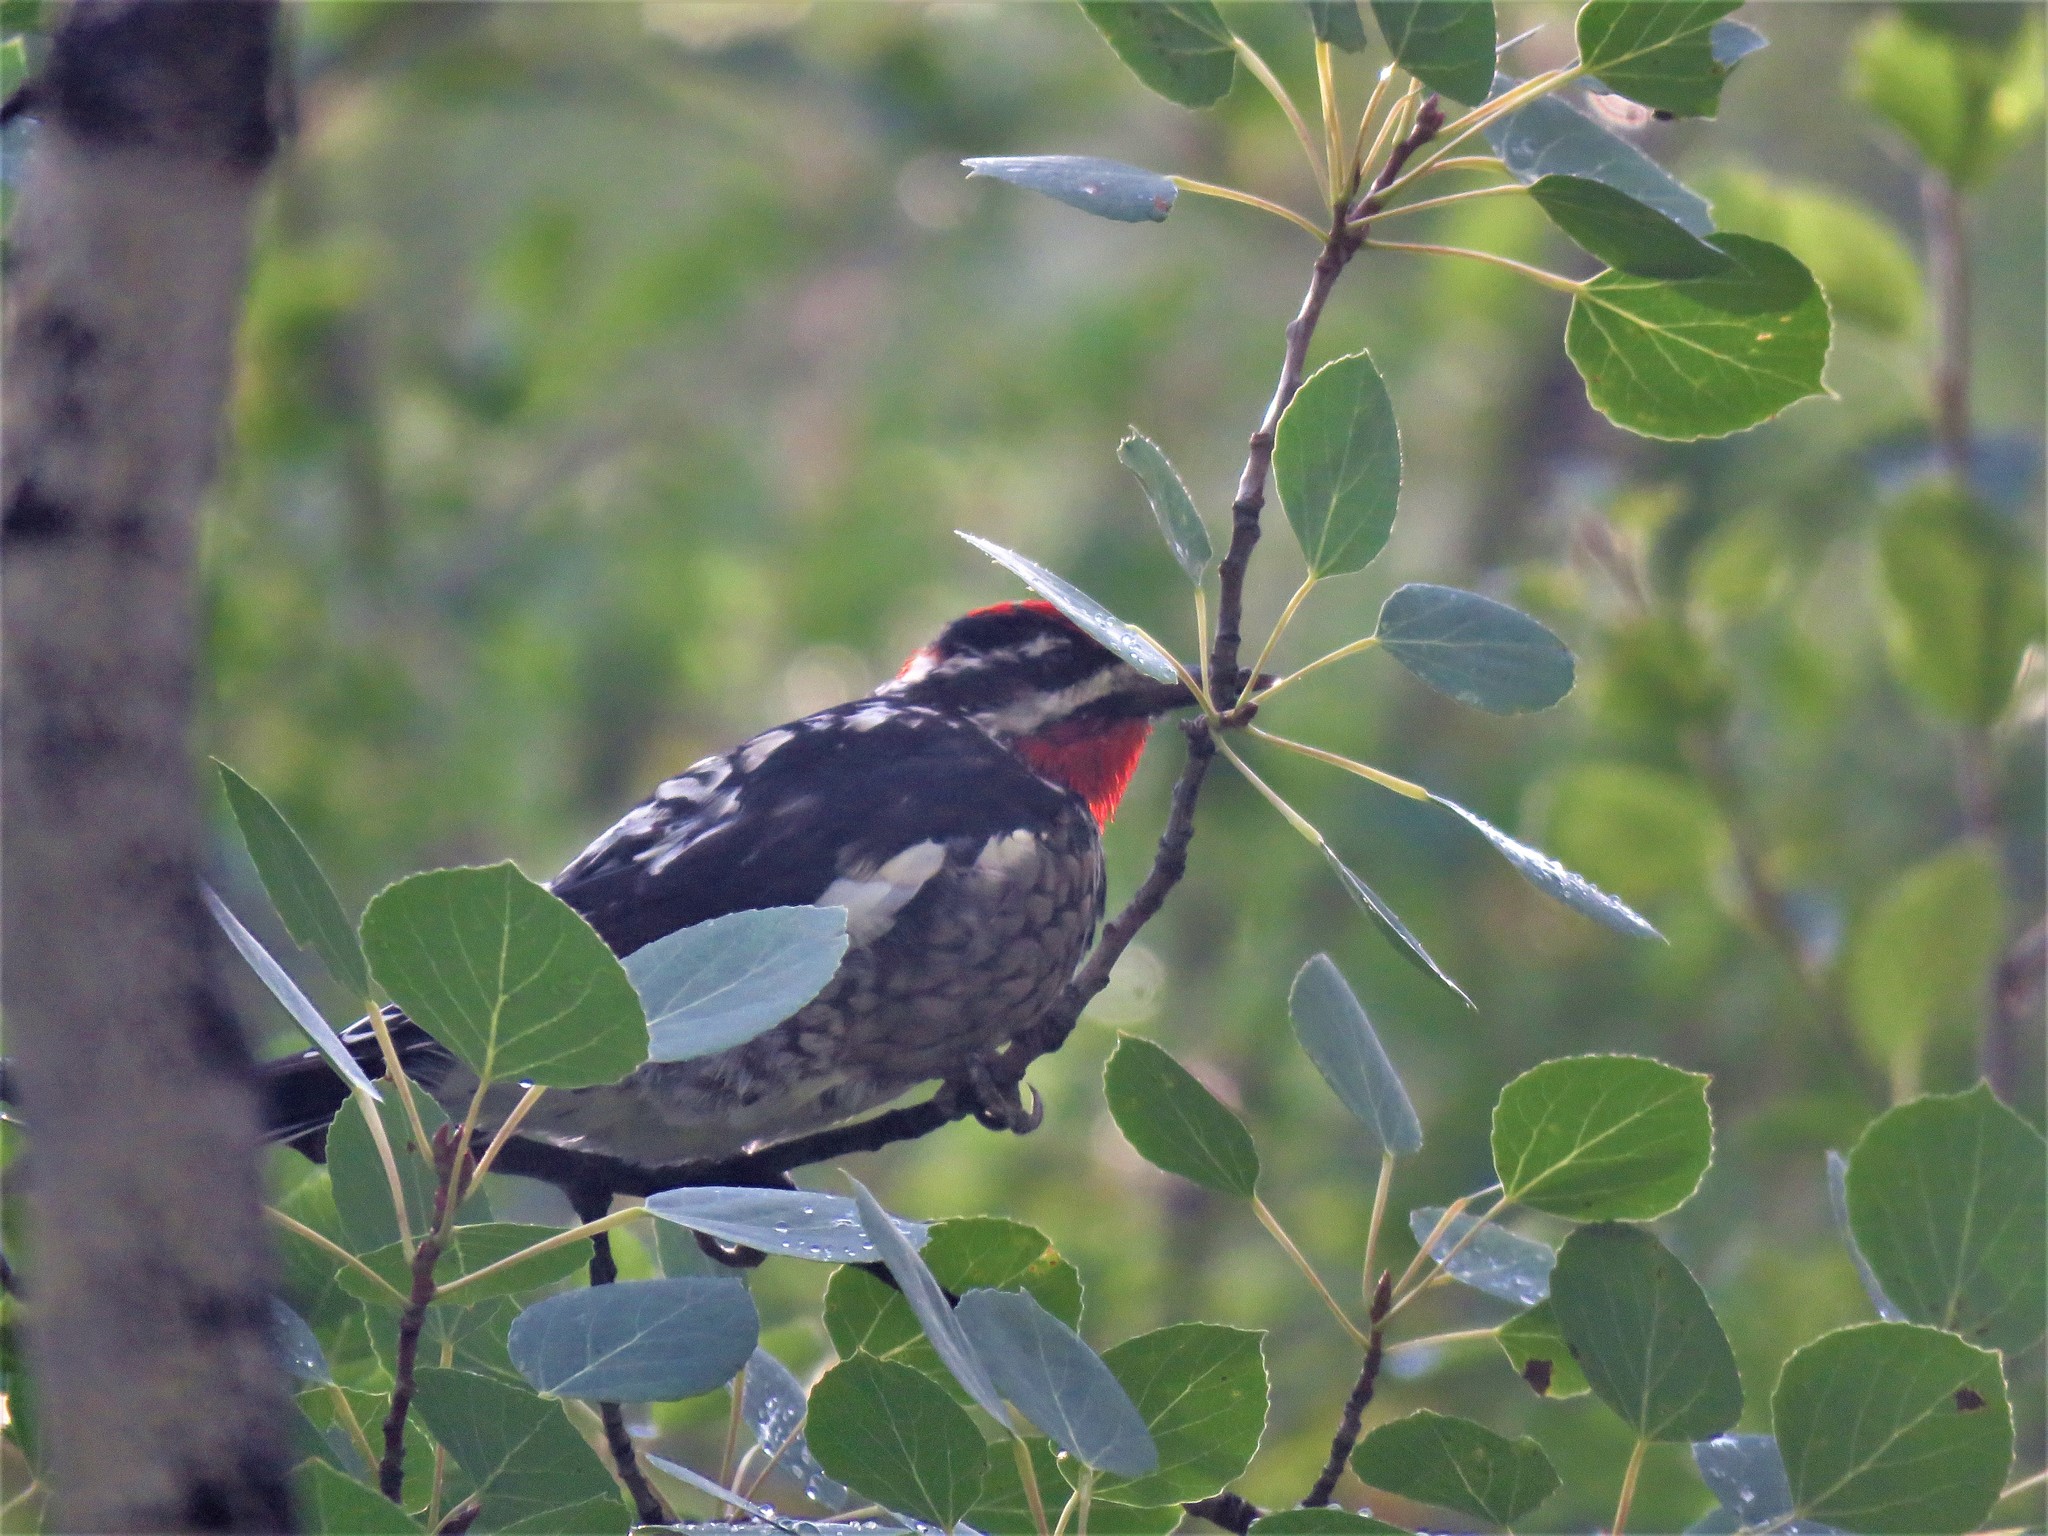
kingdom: Animalia
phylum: Chordata
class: Aves
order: Piciformes
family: Picidae
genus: Sphyrapicus
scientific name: Sphyrapicus nuchalis
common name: Red-naped sapsucker
